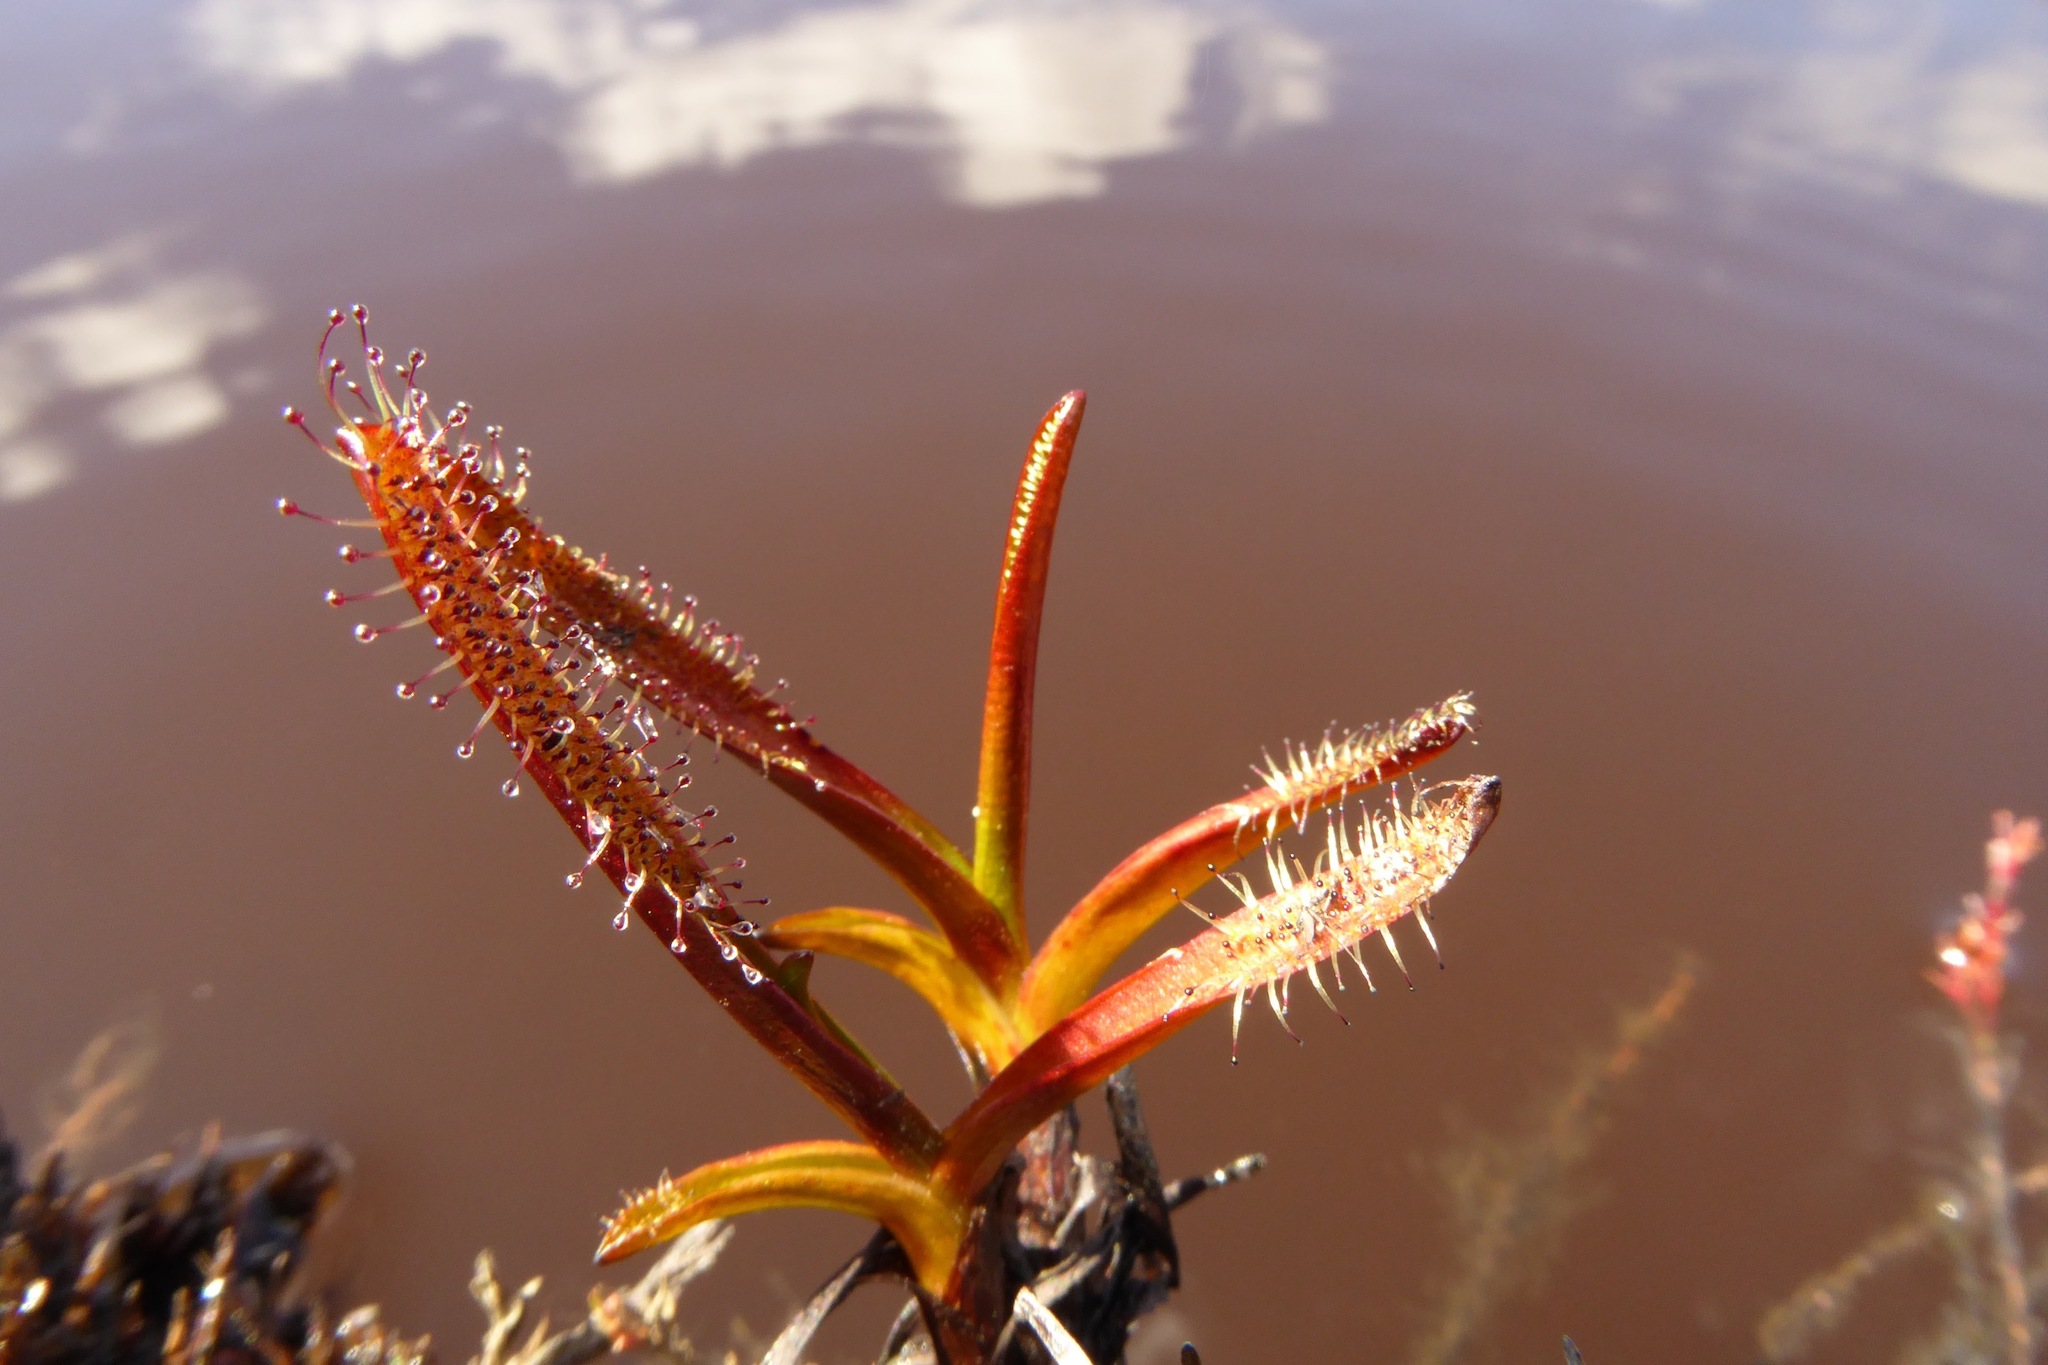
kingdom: Plantae
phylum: Tracheophyta
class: Magnoliopsida
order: Caryophyllales
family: Droseraceae
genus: Drosera
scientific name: Drosera arcturi
